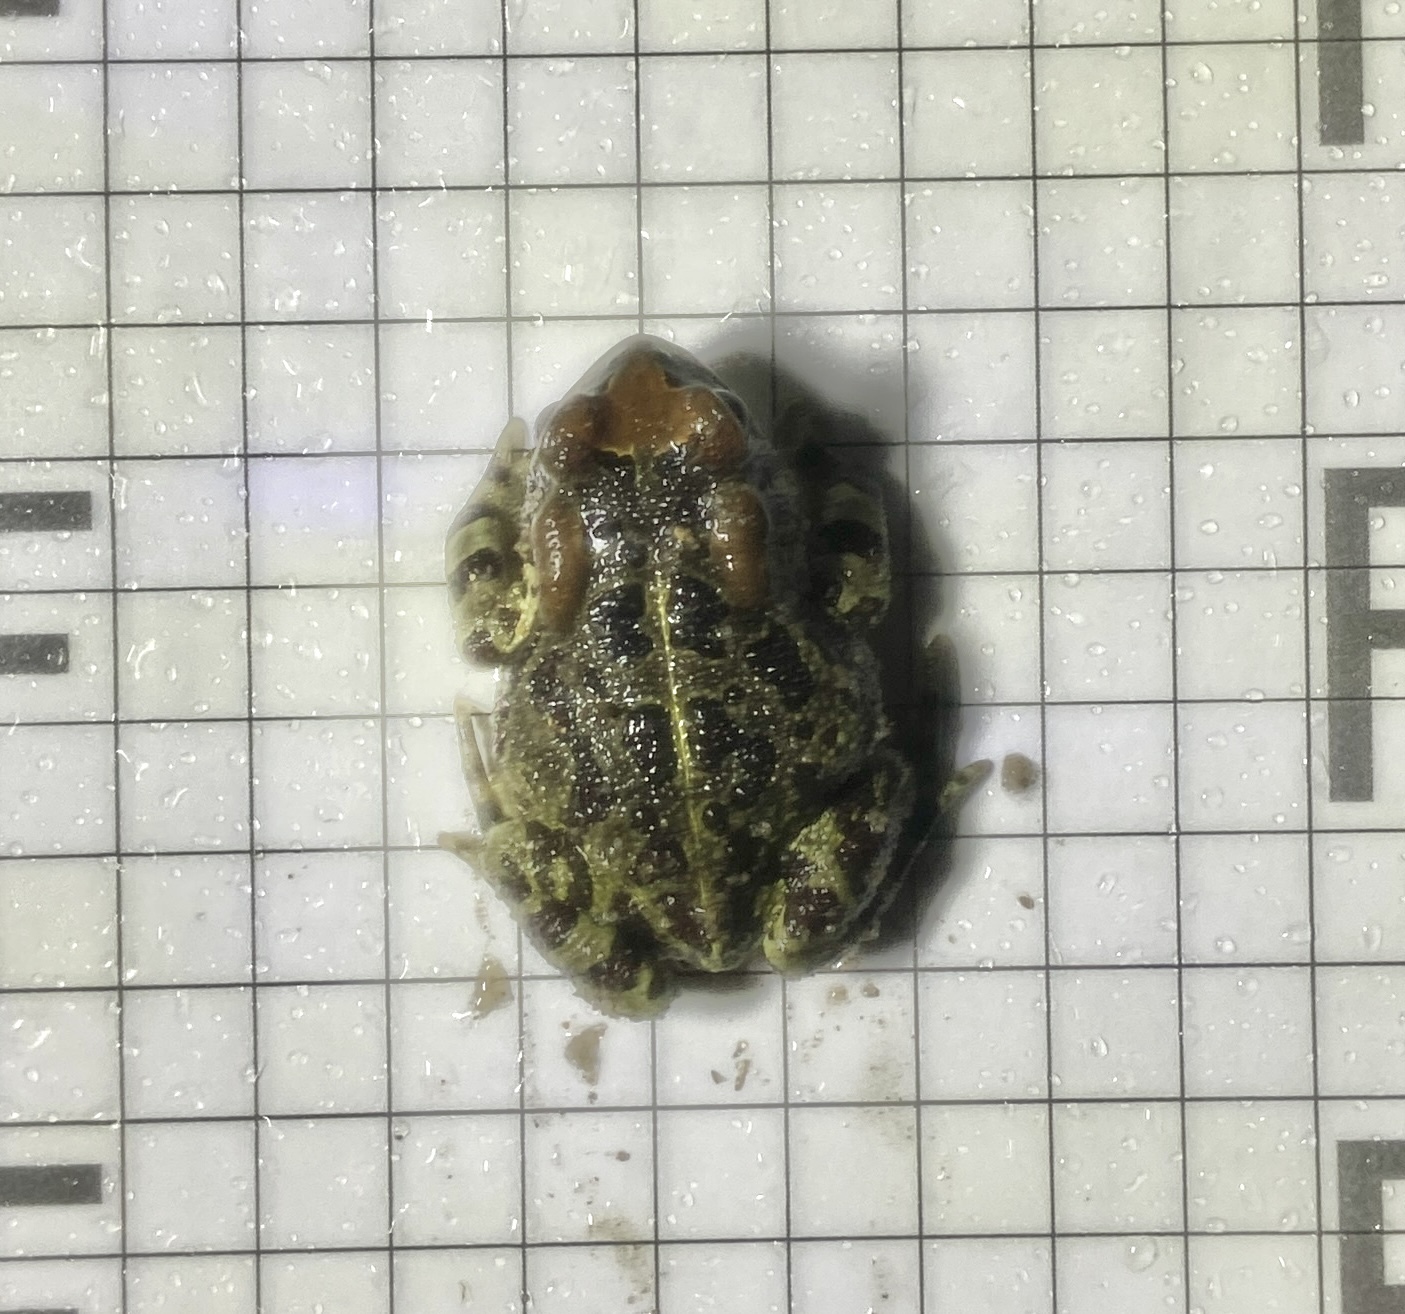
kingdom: Animalia
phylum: Chordata
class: Amphibia
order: Anura
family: Bufonidae
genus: Sclerophrys
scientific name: Sclerophrys pantherina
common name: Panther toad
